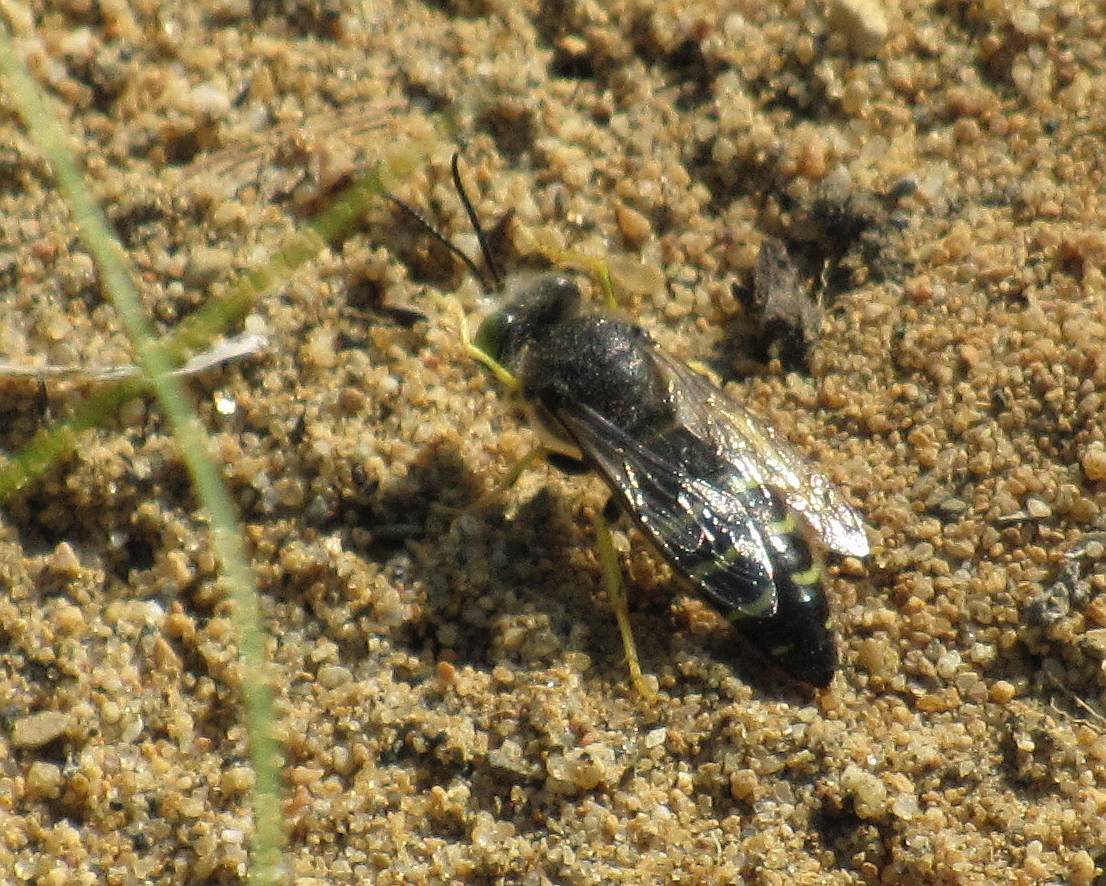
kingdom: Animalia
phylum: Arthropoda
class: Insecta
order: Hymenoptera
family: Crabronidae
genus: Bembix
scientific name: Bembix americana
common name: American sand wasp
